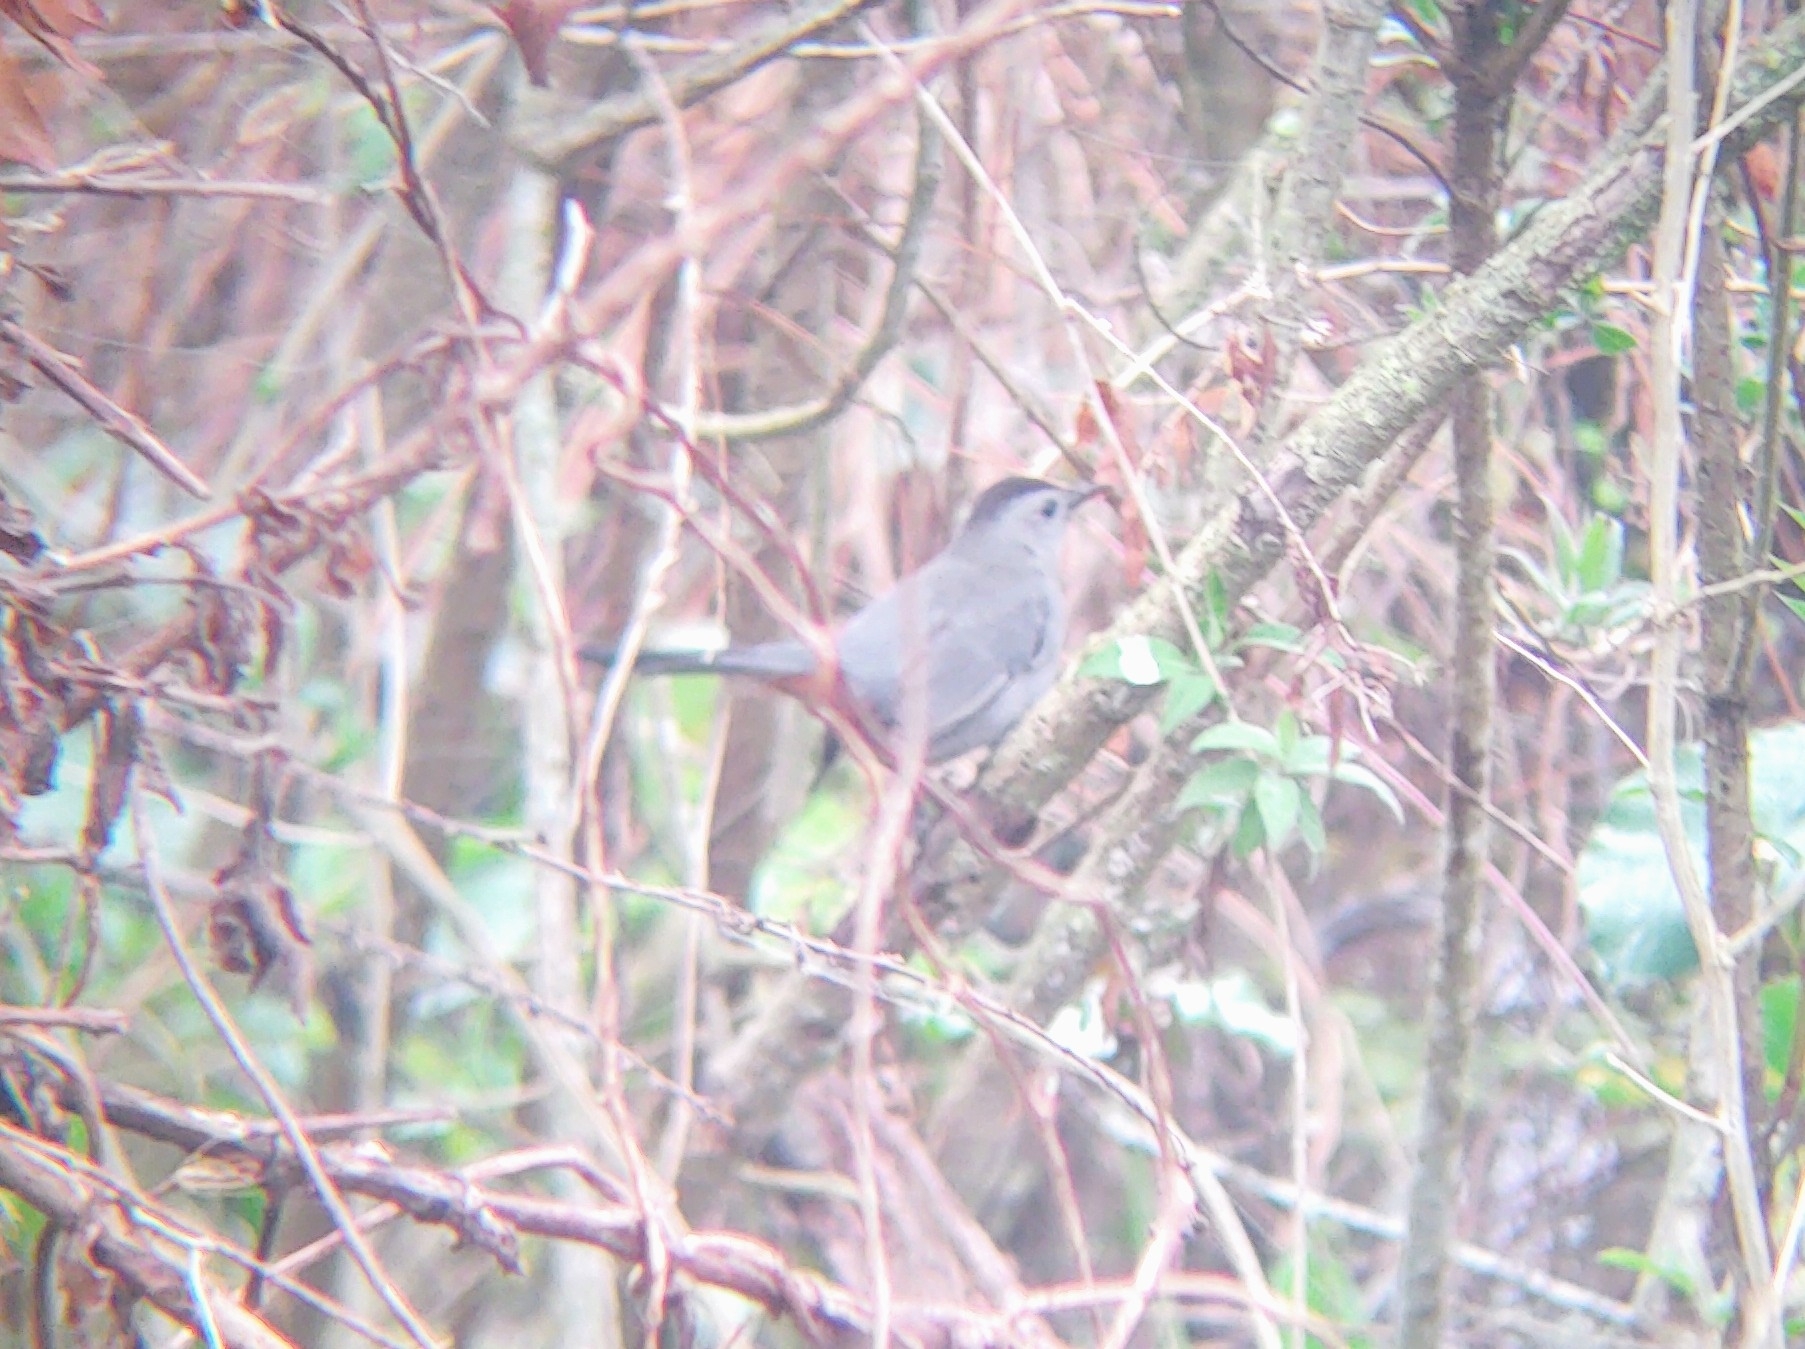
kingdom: Animalia
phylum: Chordata
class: Aves
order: Passeriformes
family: Mimidae
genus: Dumetella
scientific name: Dumetella carolinensis
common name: Gray catbird
